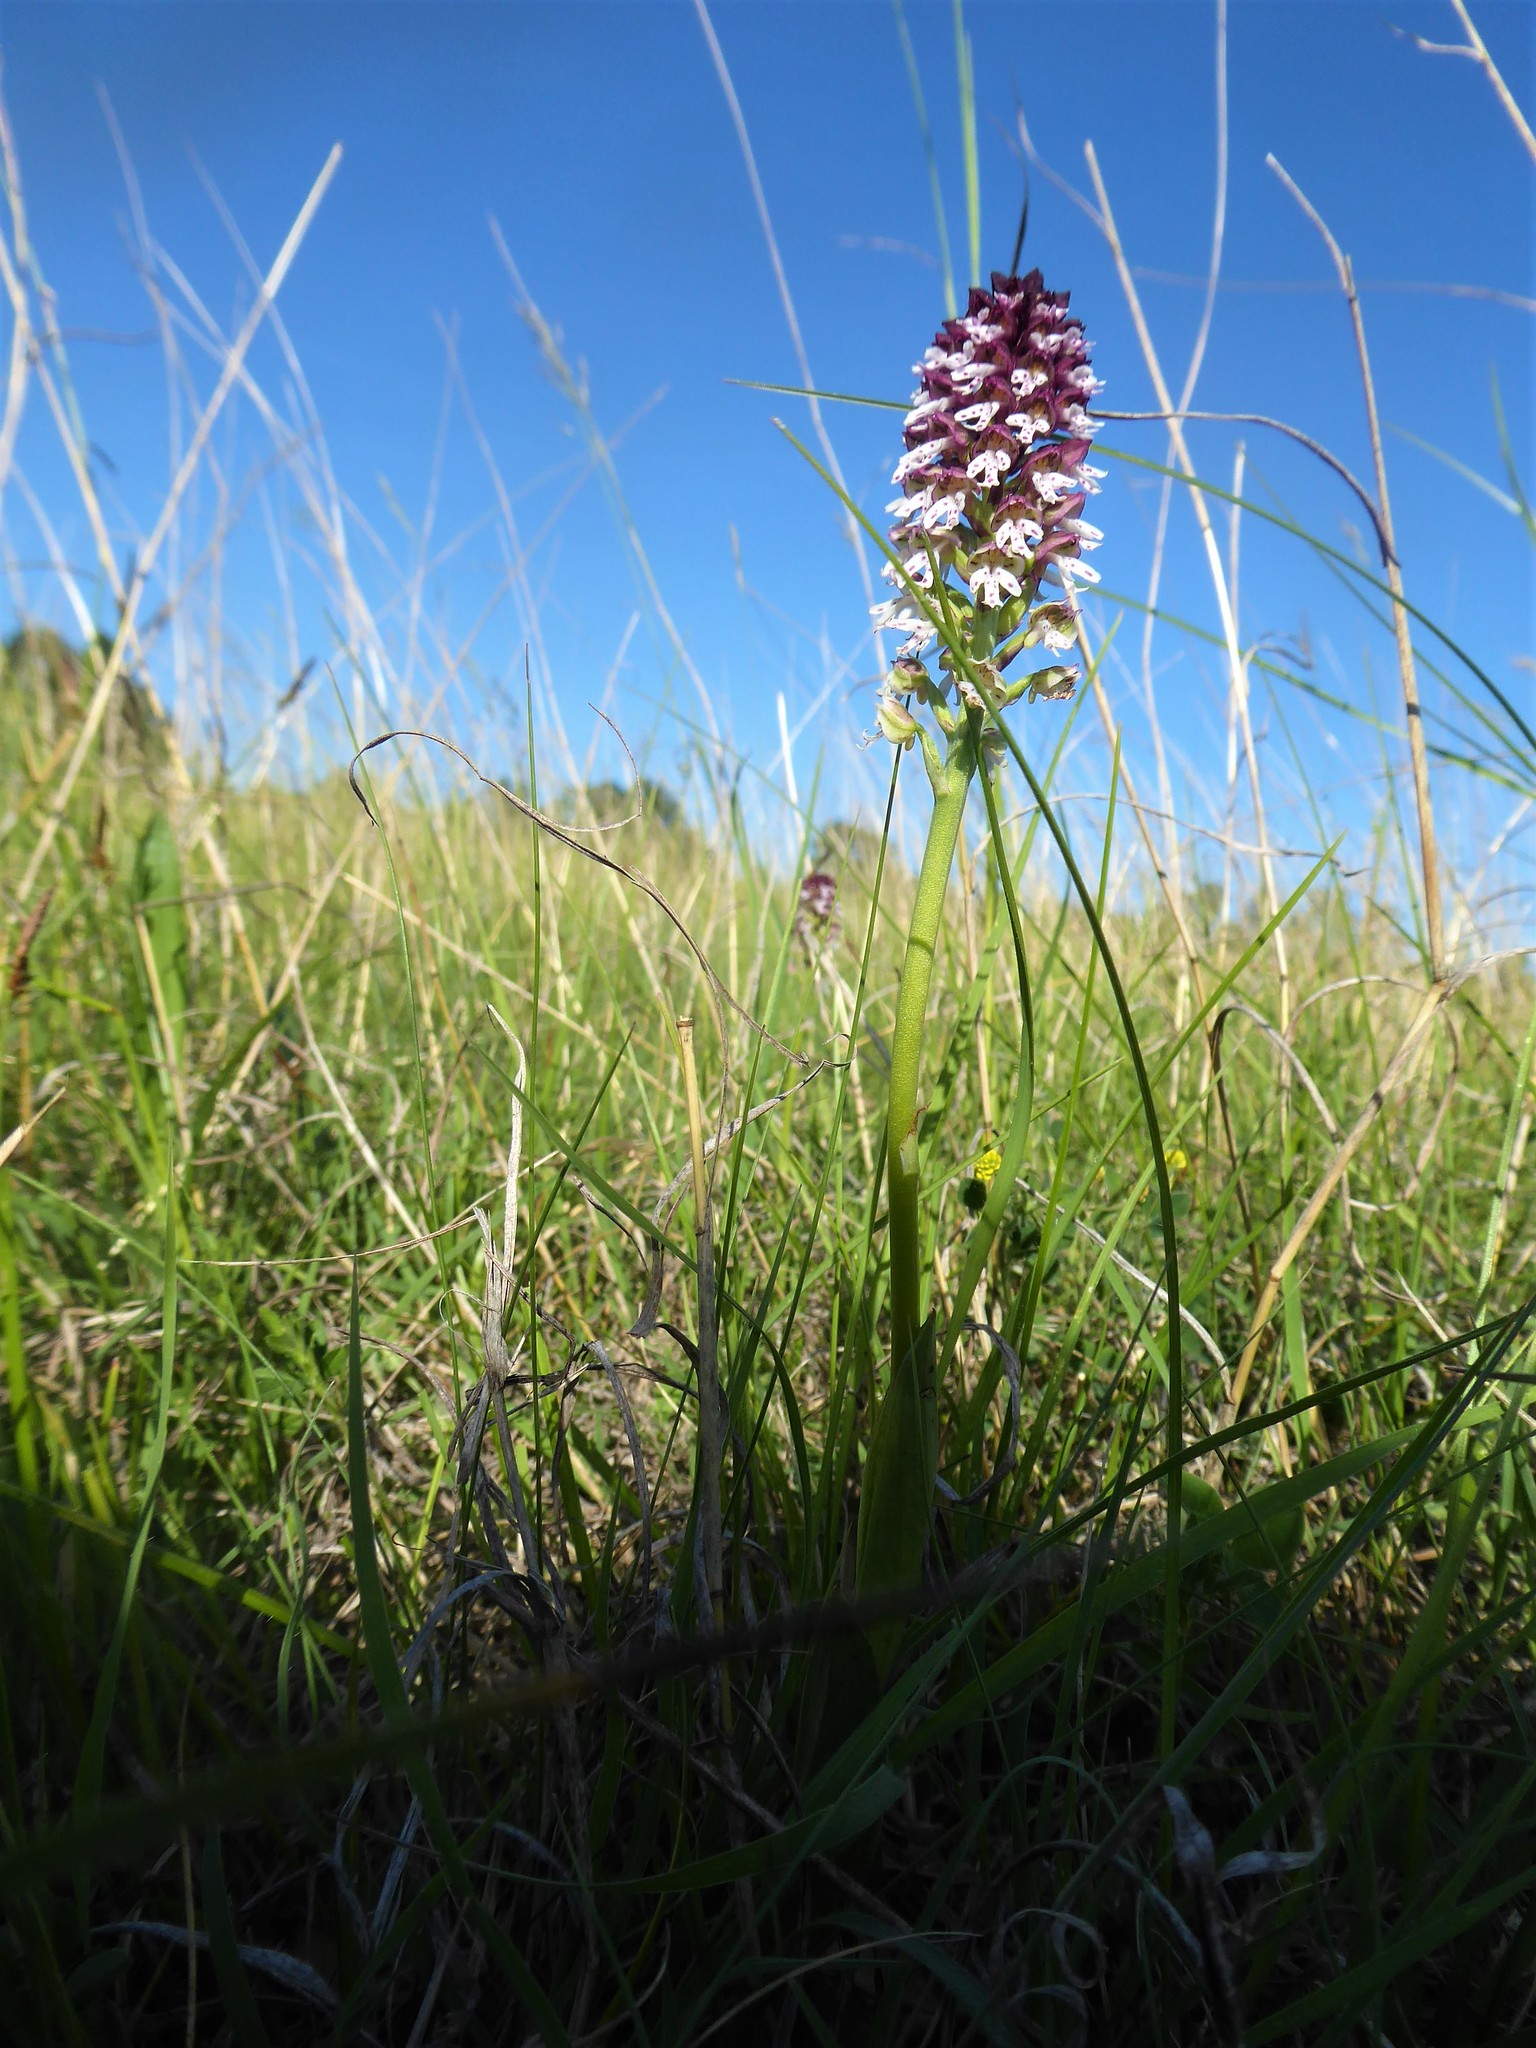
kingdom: Plantae
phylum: Tracheophyta
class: Liliopsida
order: Asparagales
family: Orchidaceae
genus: Neotinea
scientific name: Neotinea ustulata
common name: Burnt orchid
